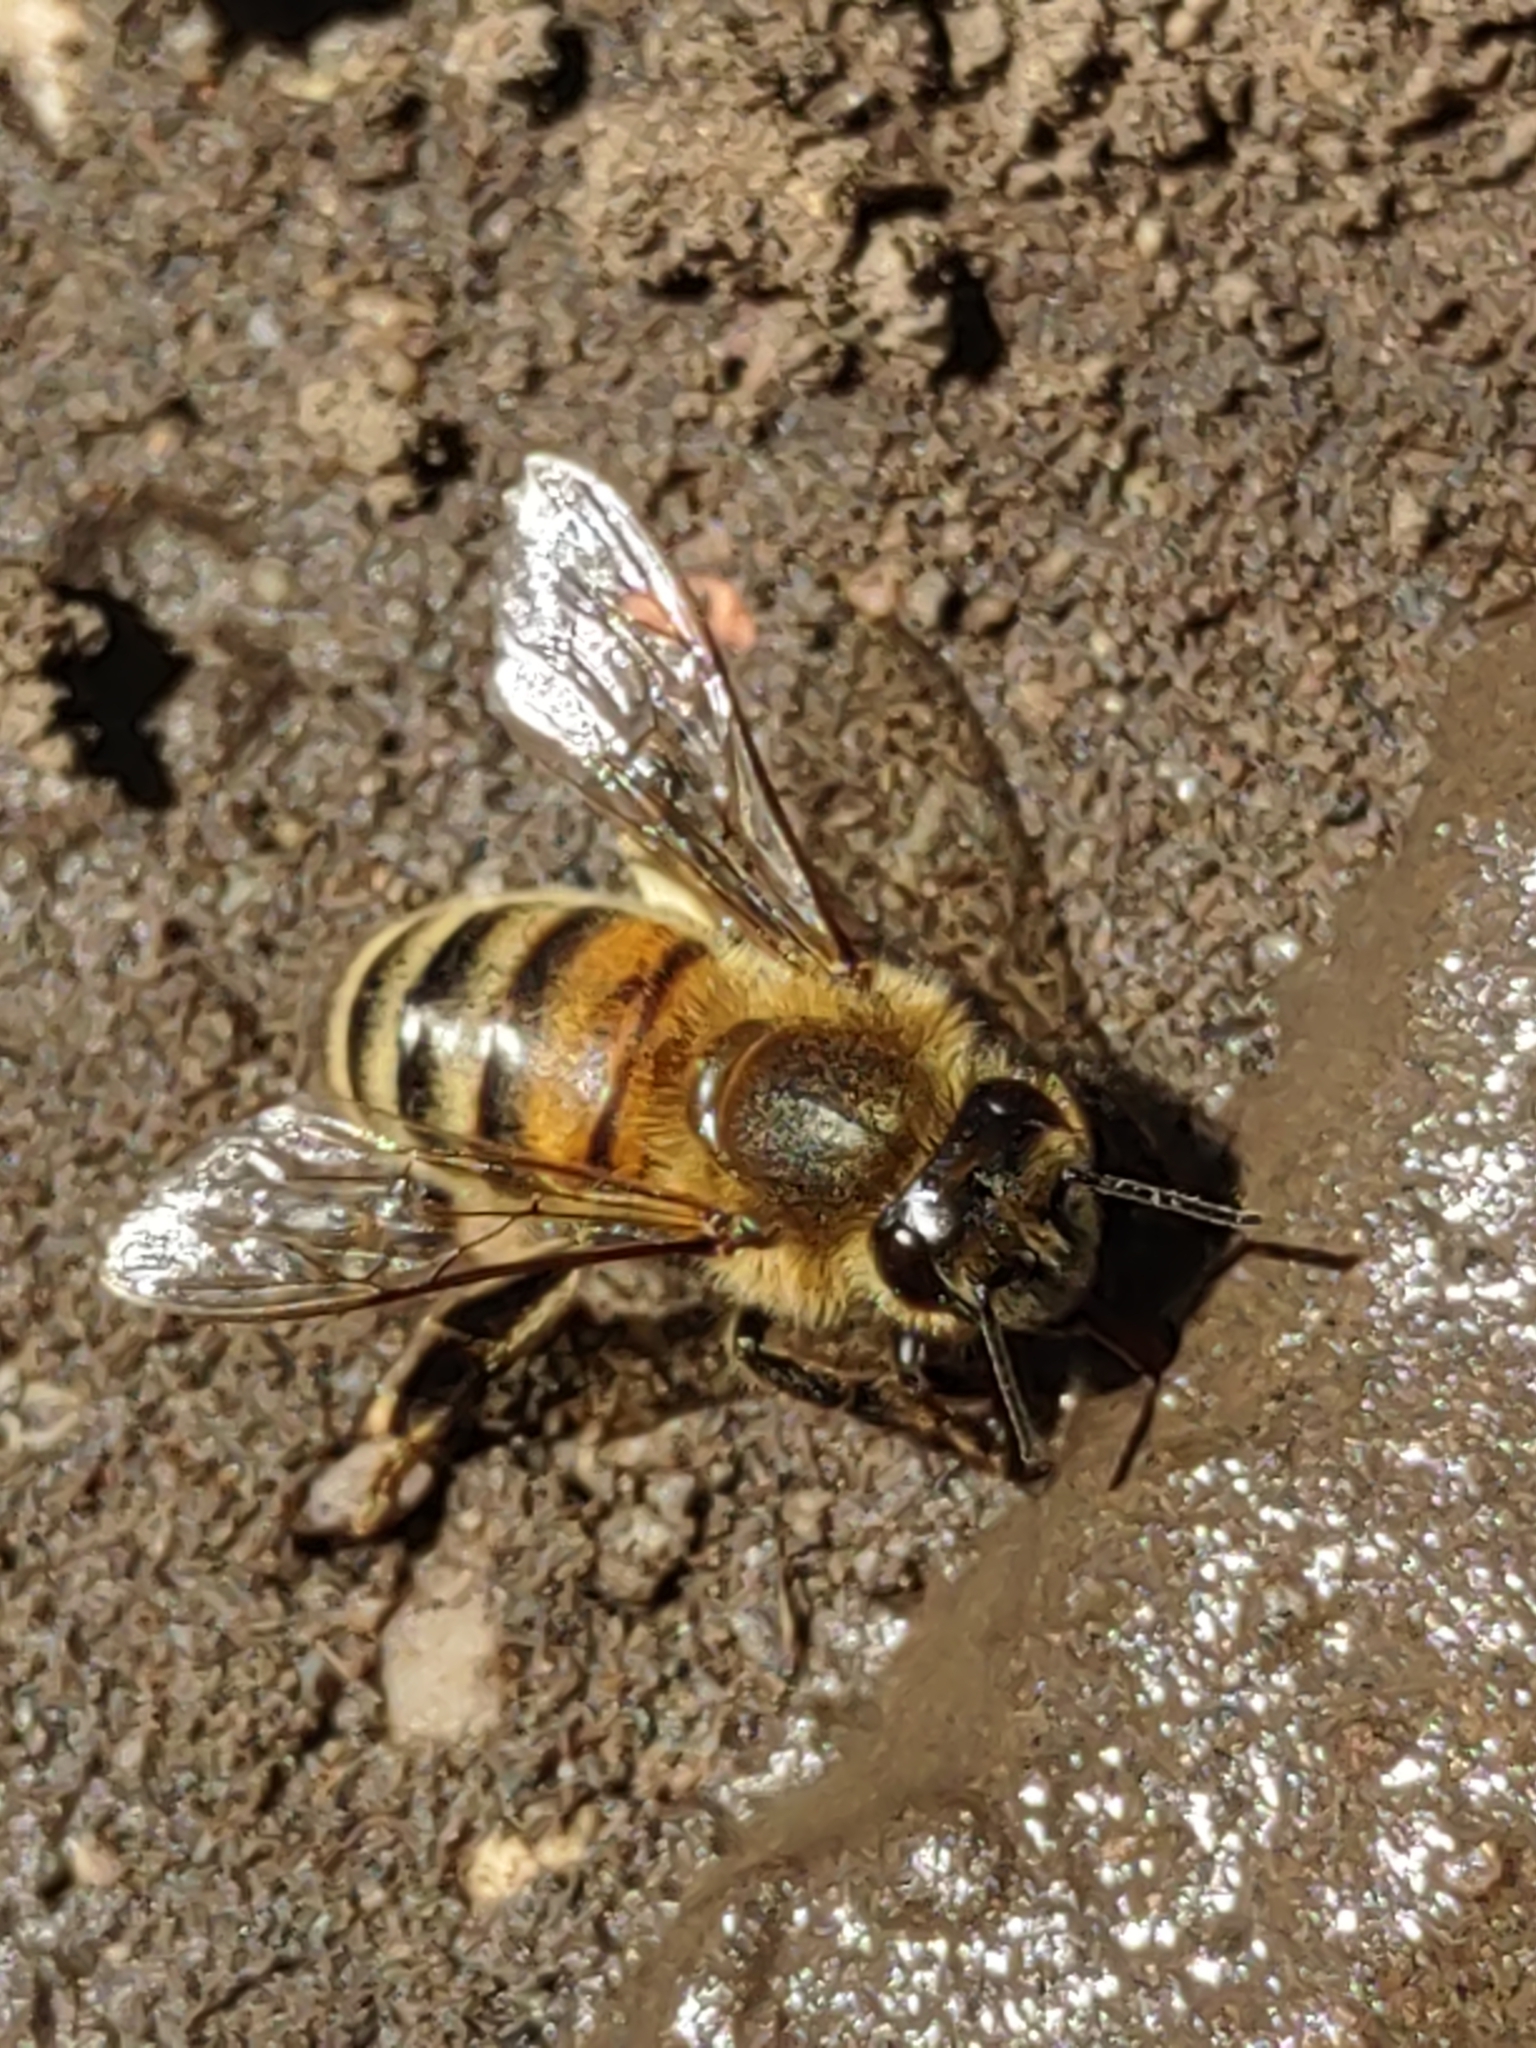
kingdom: Animalia
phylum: Arthropoda
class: Insecta
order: Hymenoptera
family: Apidae
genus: Apis
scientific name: Apis mellifera
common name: Honey bee
